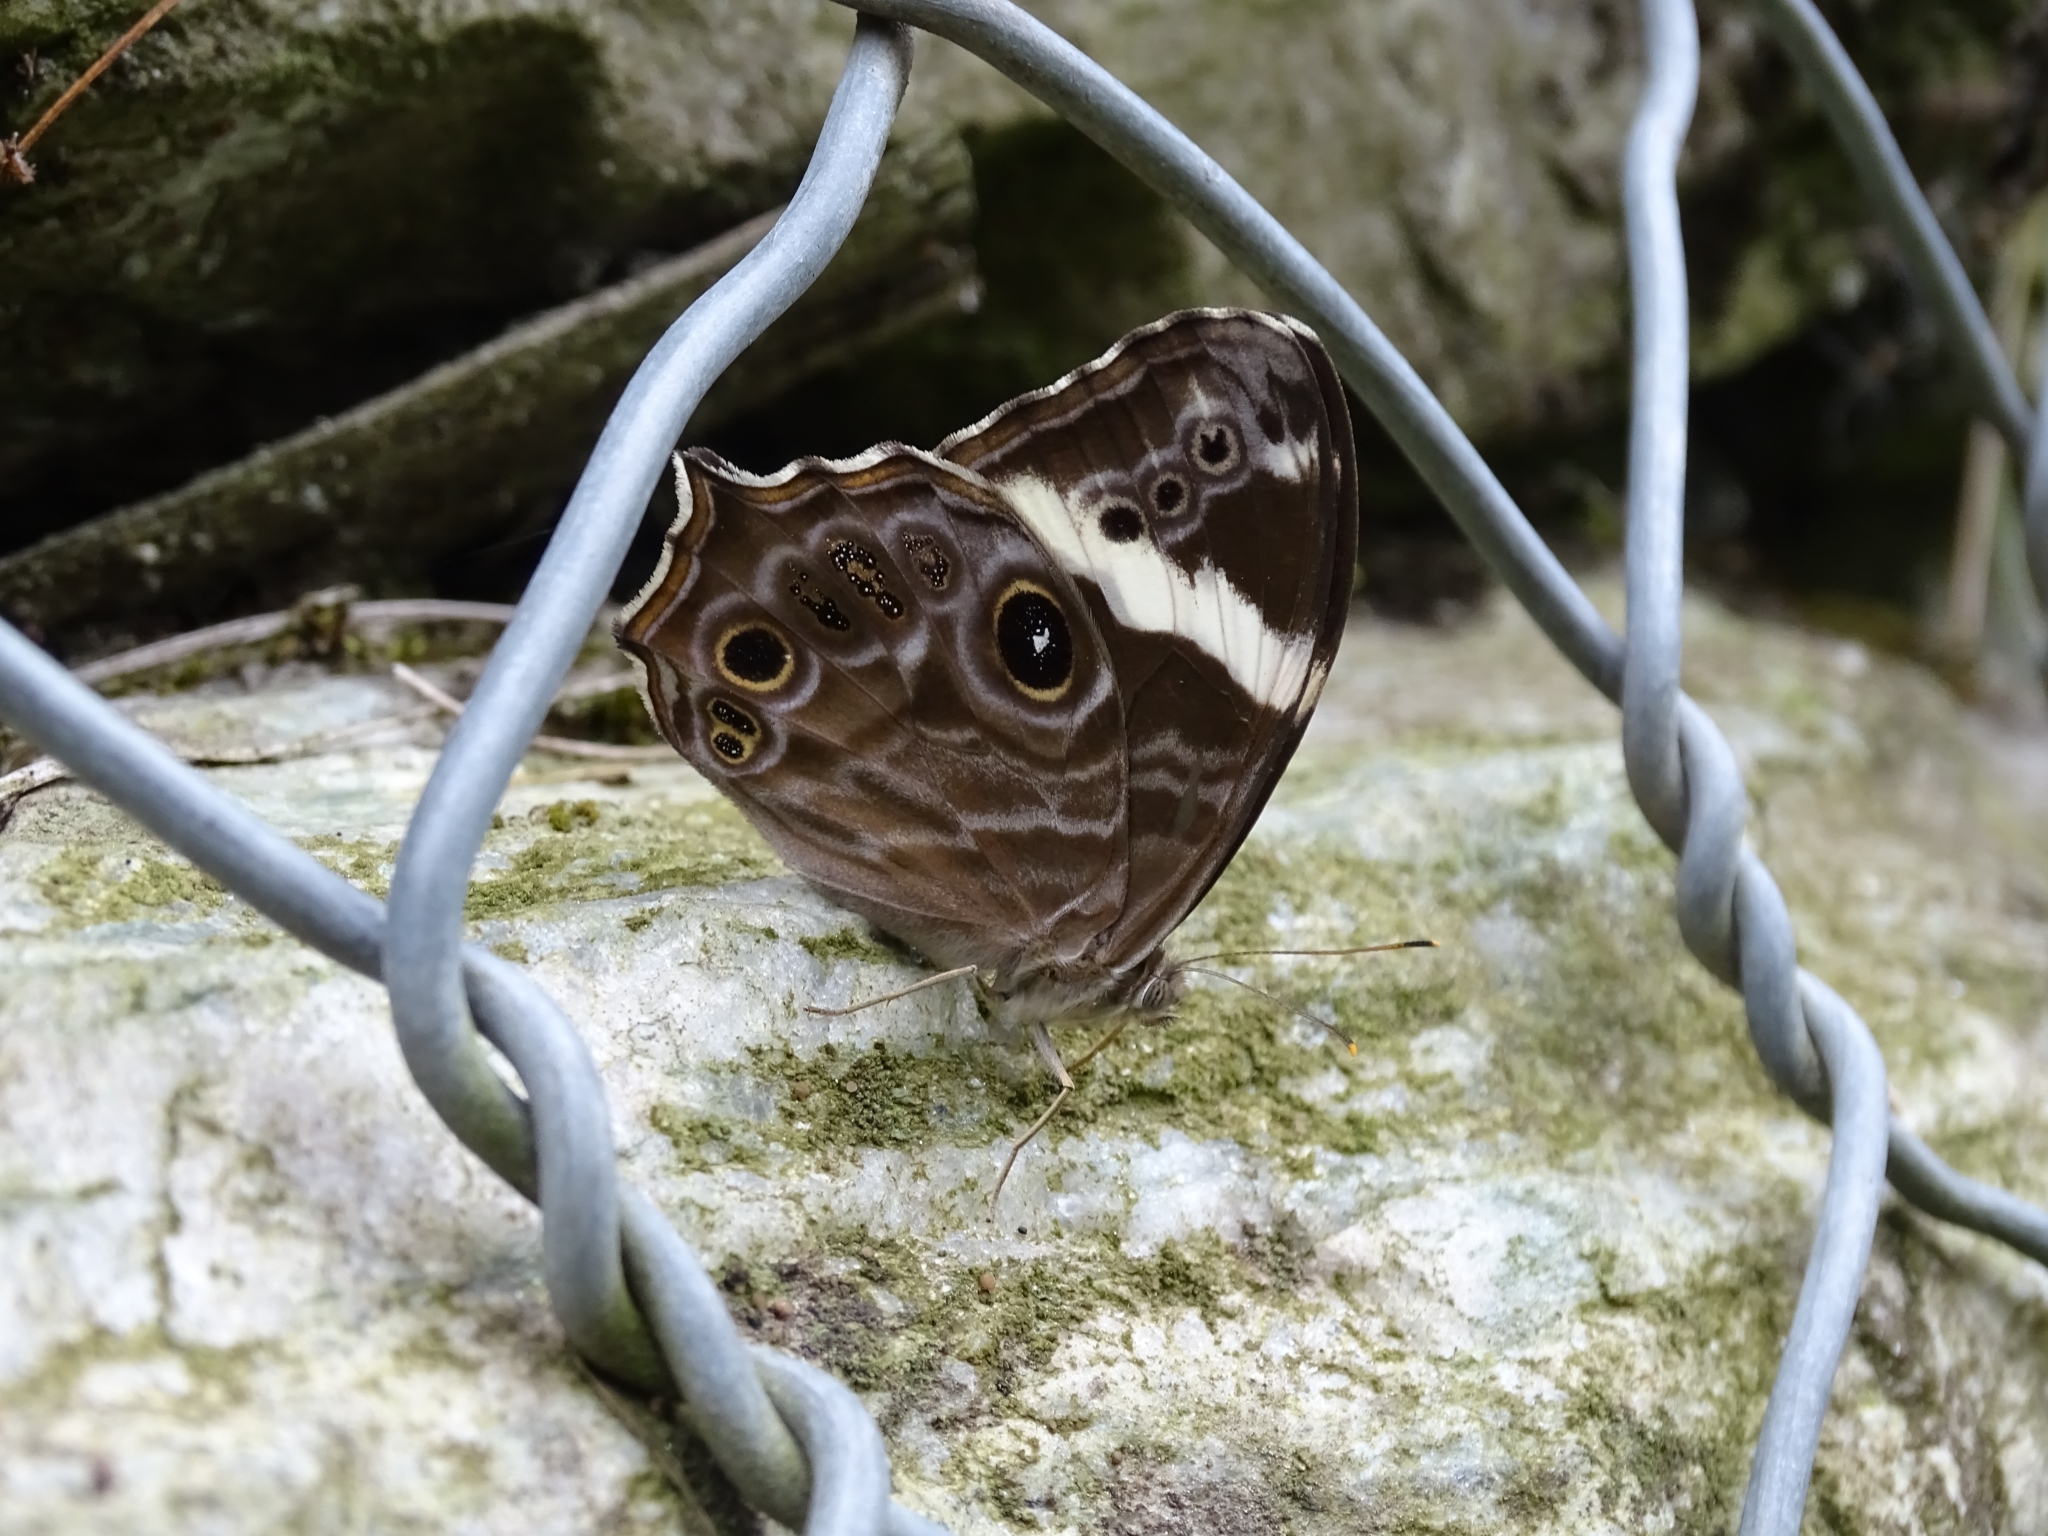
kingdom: Animalia
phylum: Arthropoda
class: Insecta
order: Lepidoptera
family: Nymphalidae
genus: Lethe
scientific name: Lethe rohria
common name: Common treebrown
